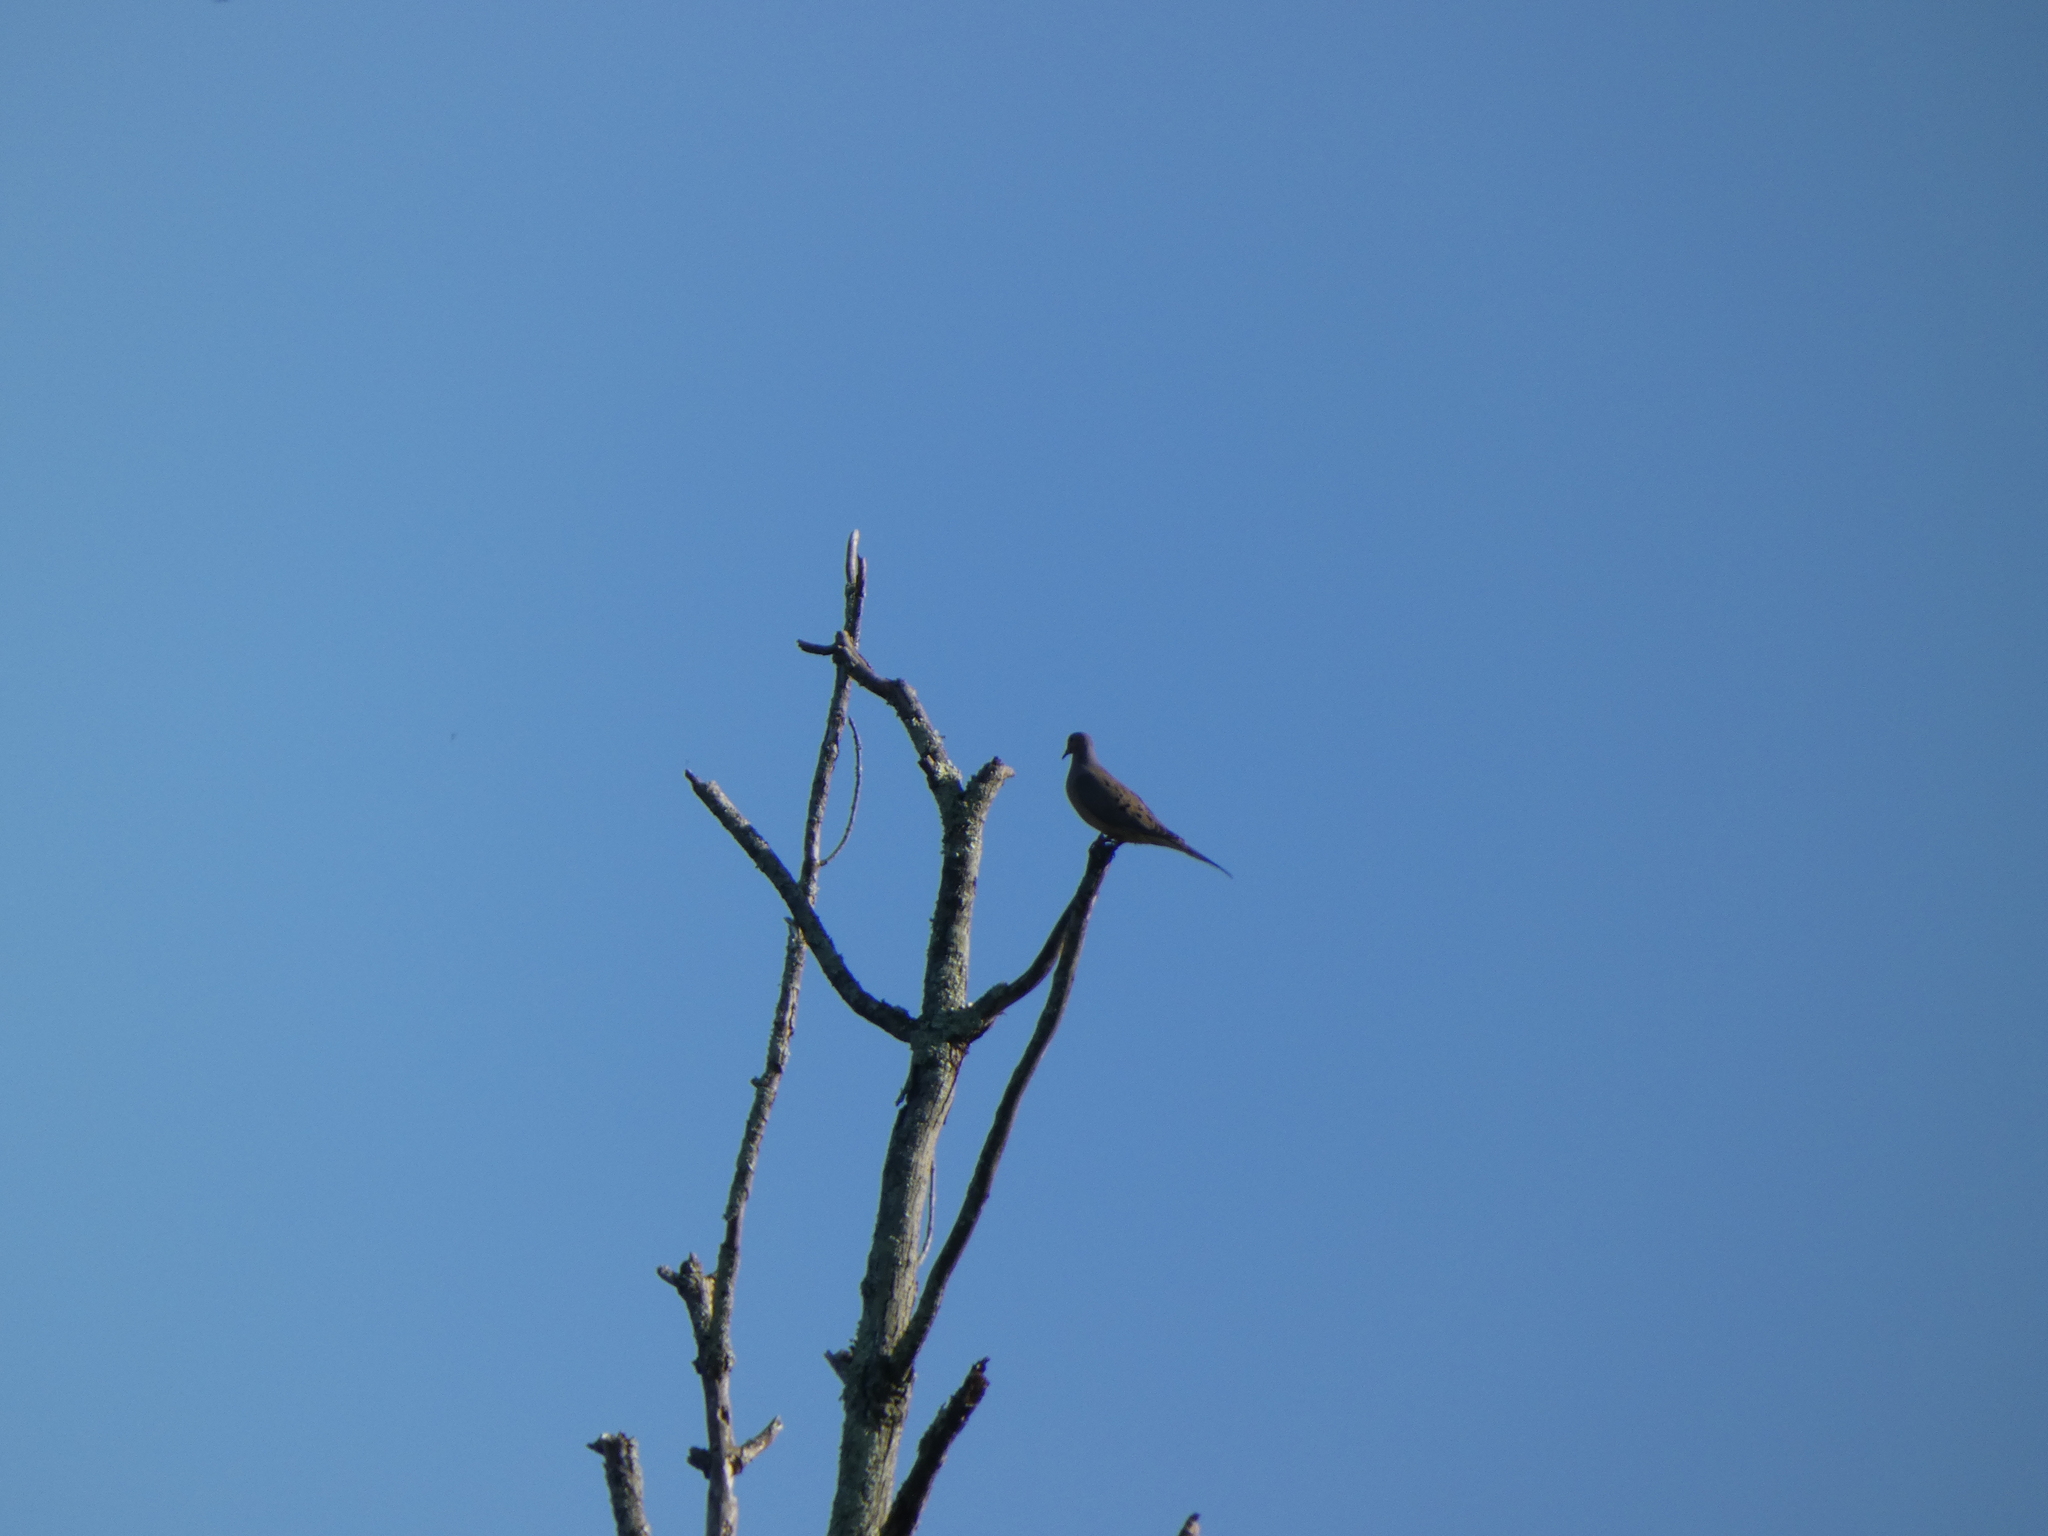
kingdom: Animalia
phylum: Chordata
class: Aves
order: Columbiformes
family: Columbidae
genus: Zenaida
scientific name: Zenaida macroura
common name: Mourning dove
